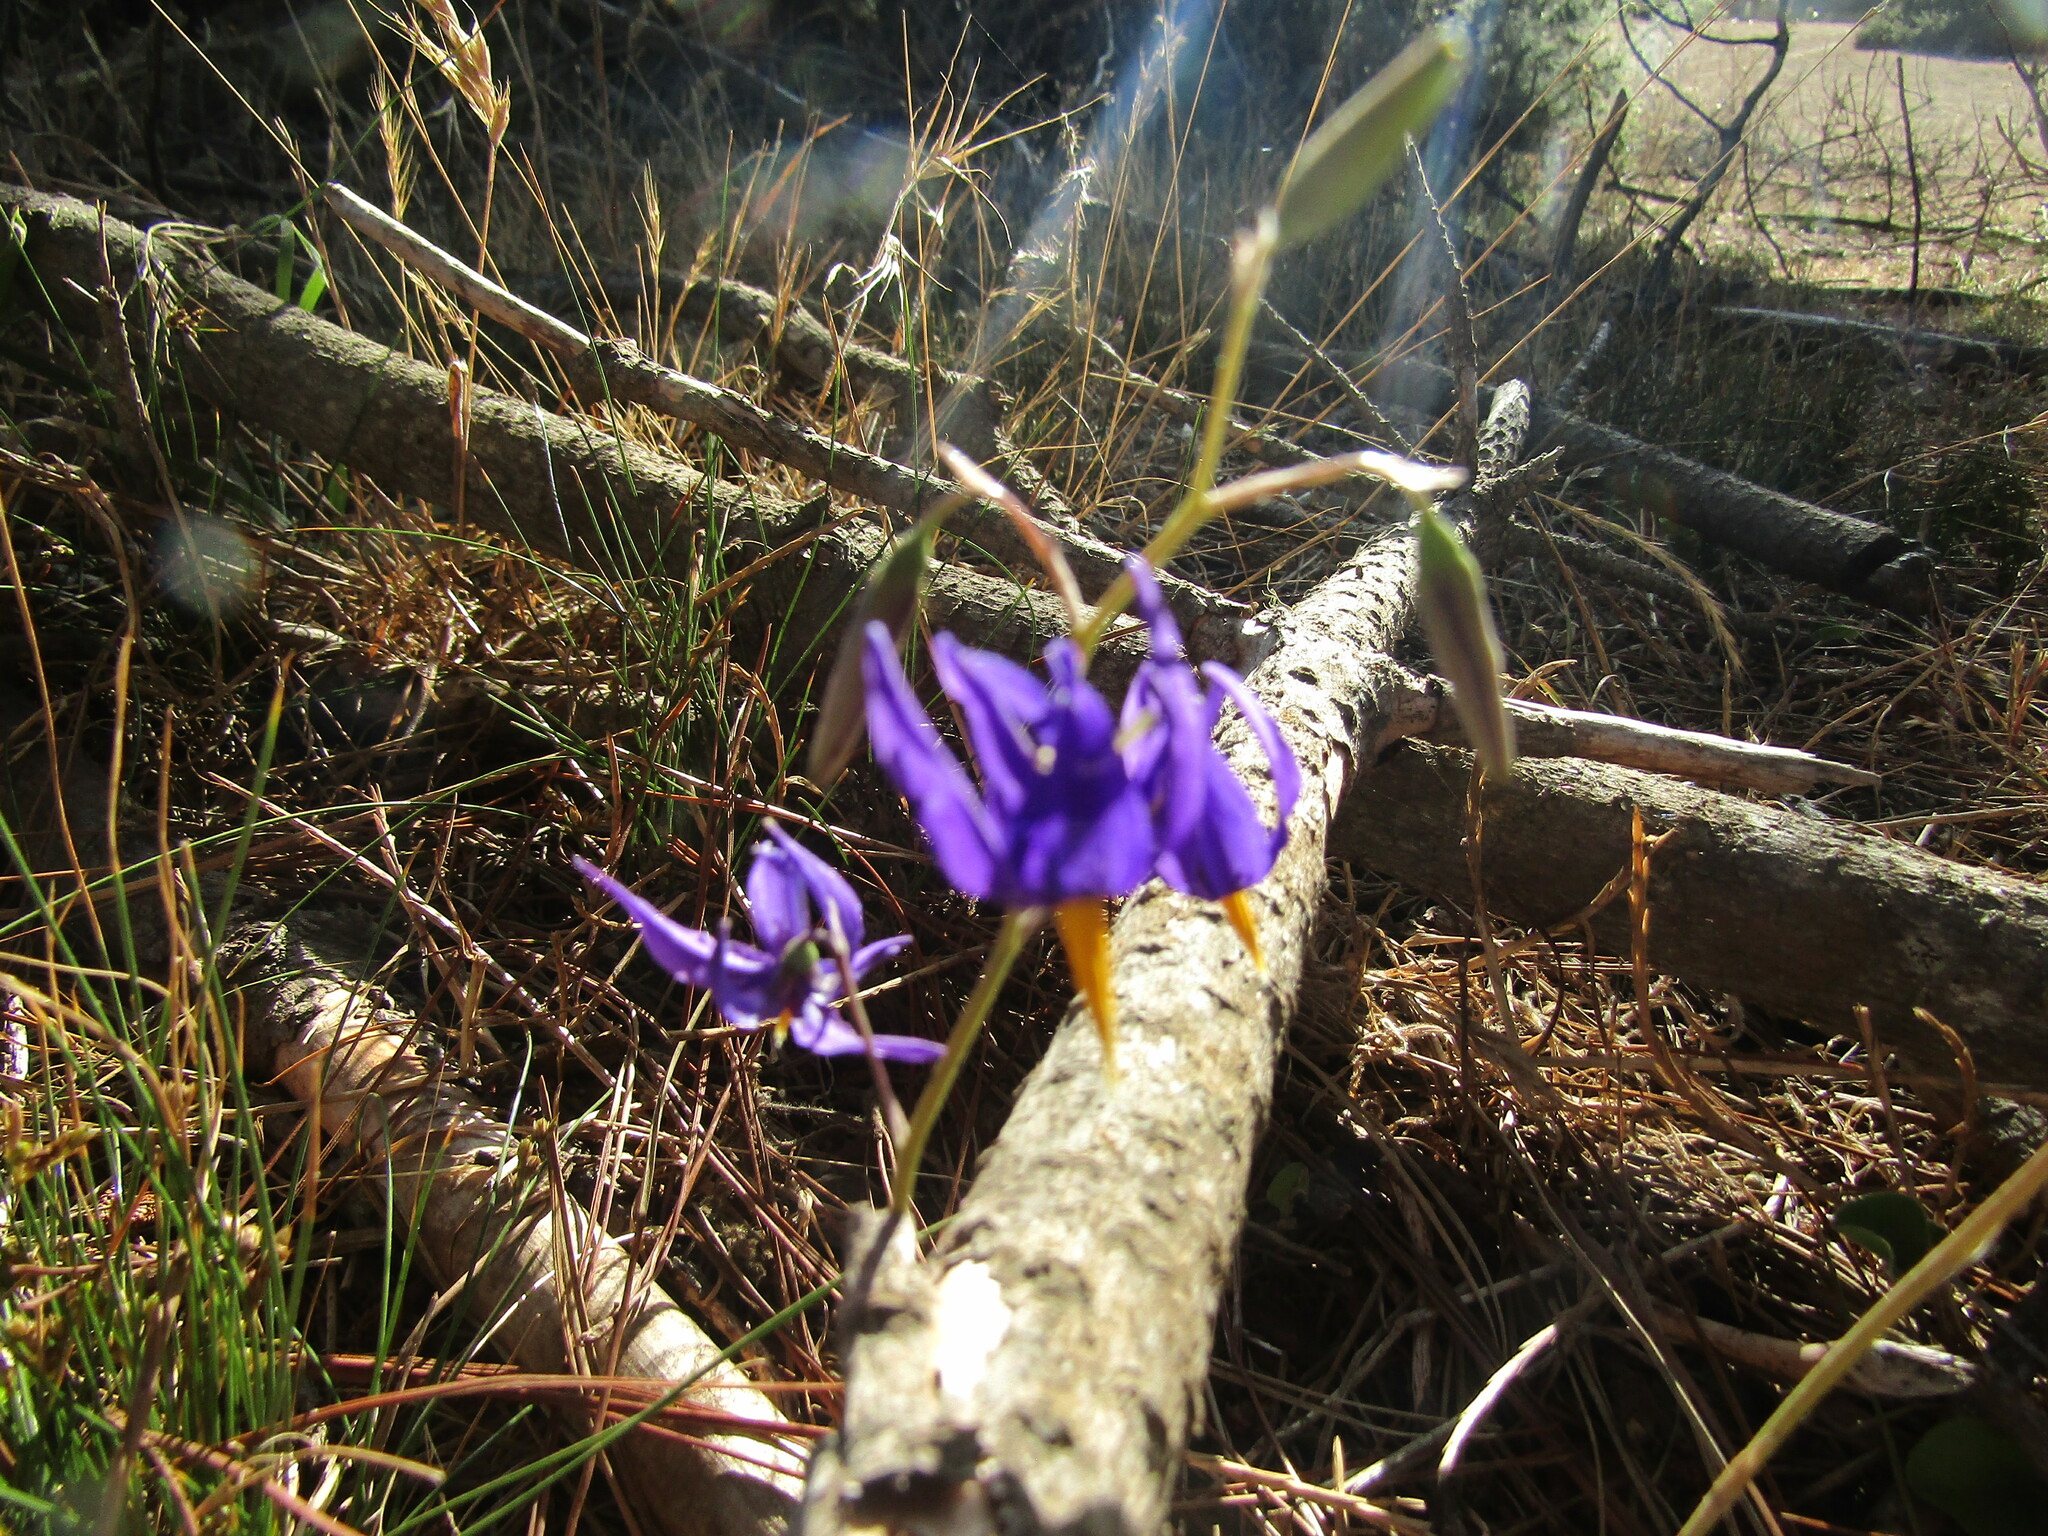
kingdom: Plantae
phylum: Tracheophyta
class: Liliopsida
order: Asparagales
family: Tecophilaeaceae
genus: Conanthera
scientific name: Conanthera bifolia
